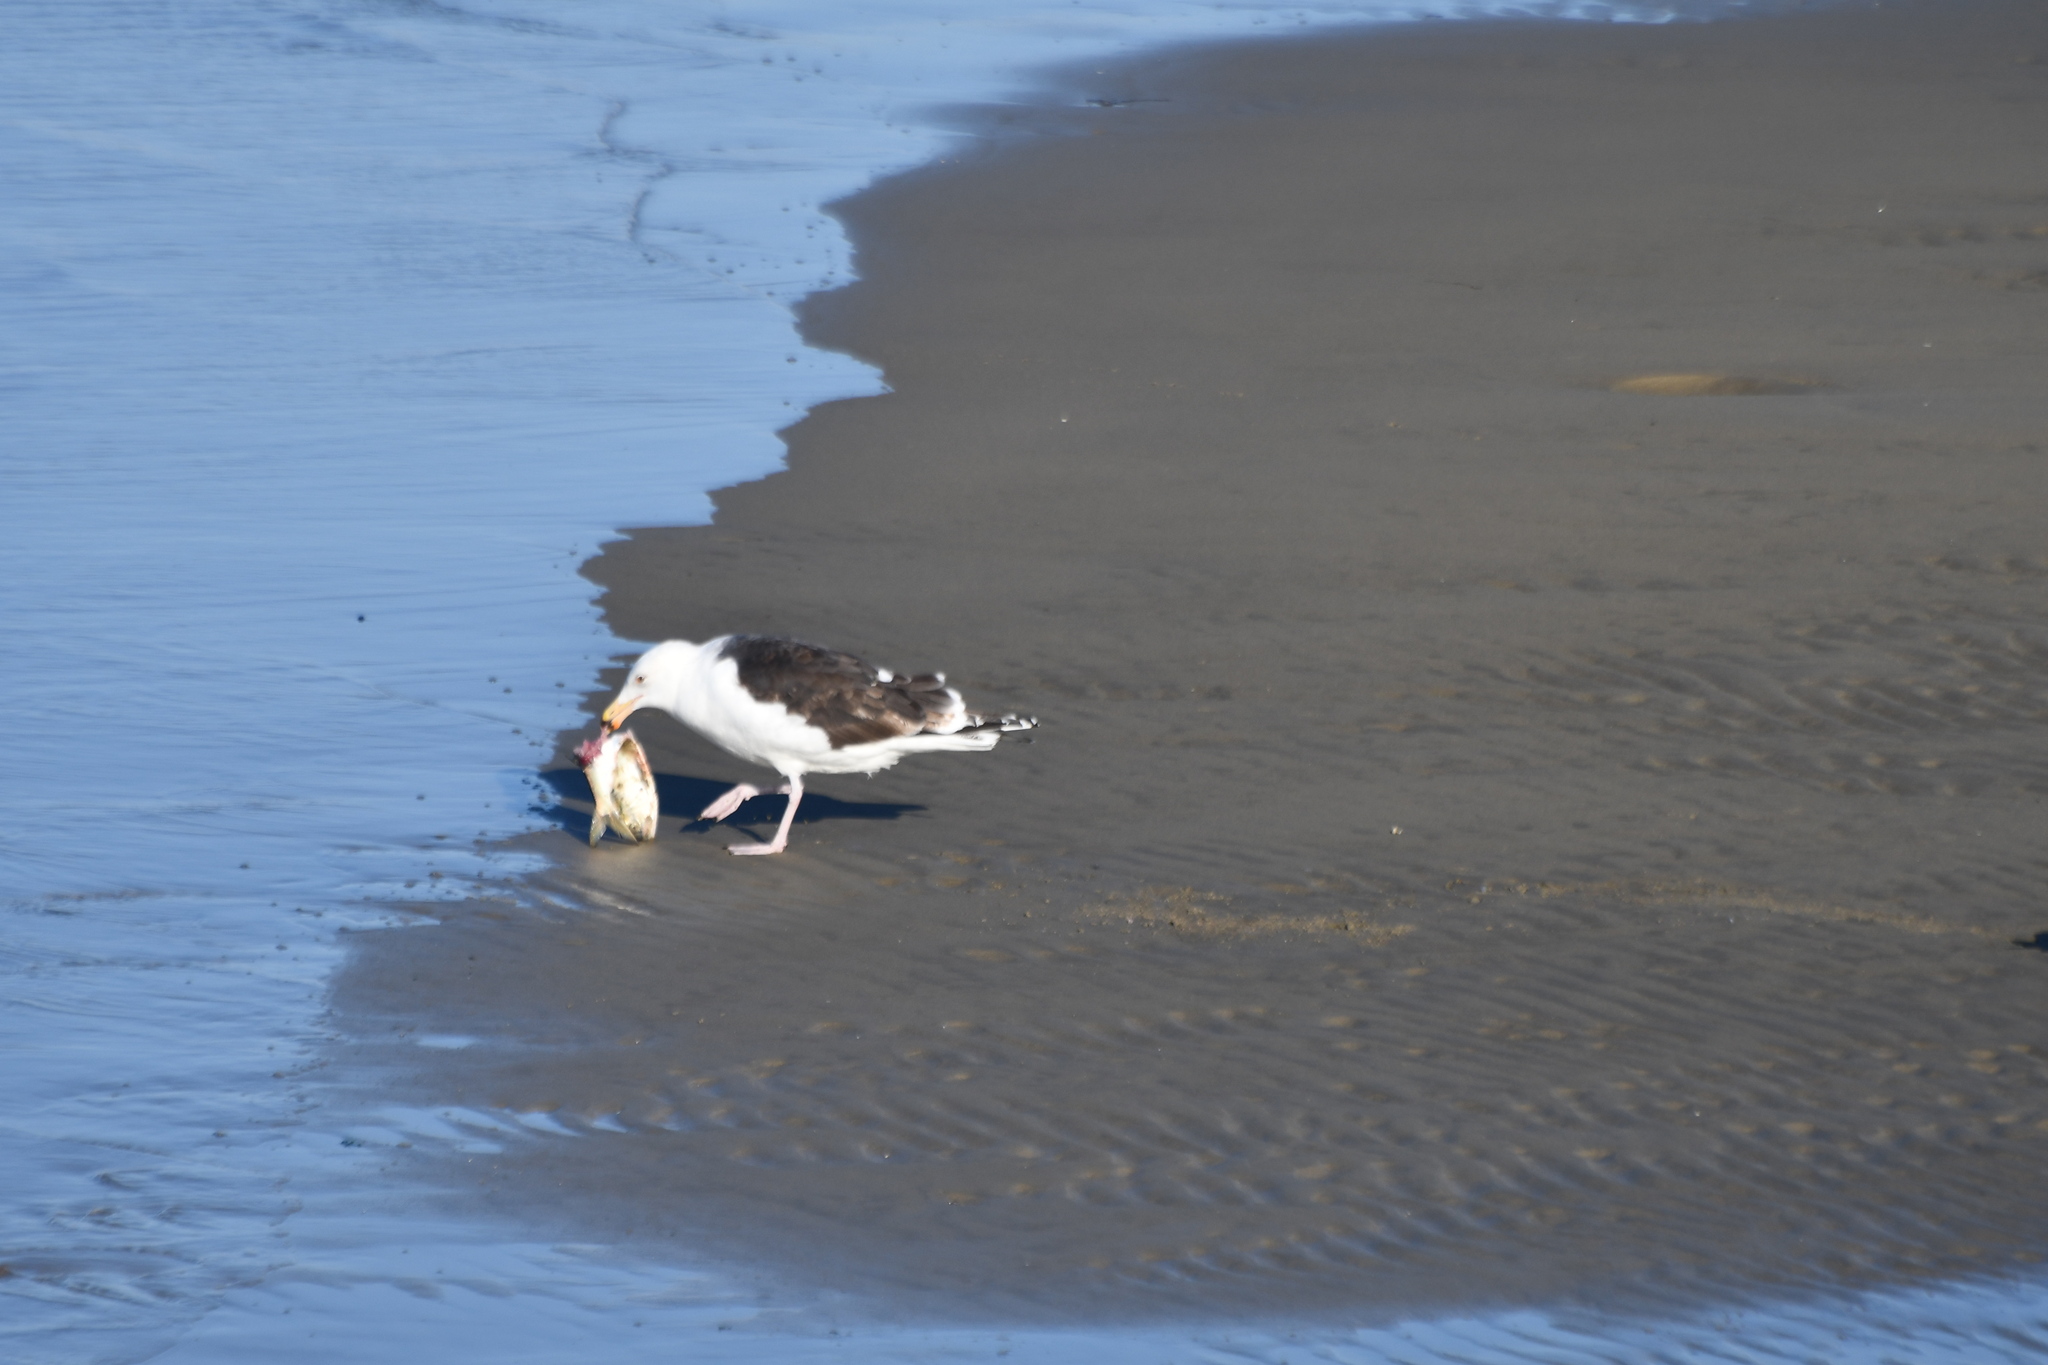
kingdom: Animalia
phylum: Chordata
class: Aves
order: Charadriiformes
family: Laridae
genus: Larus
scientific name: Larus marinus
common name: Great black-backed gull
